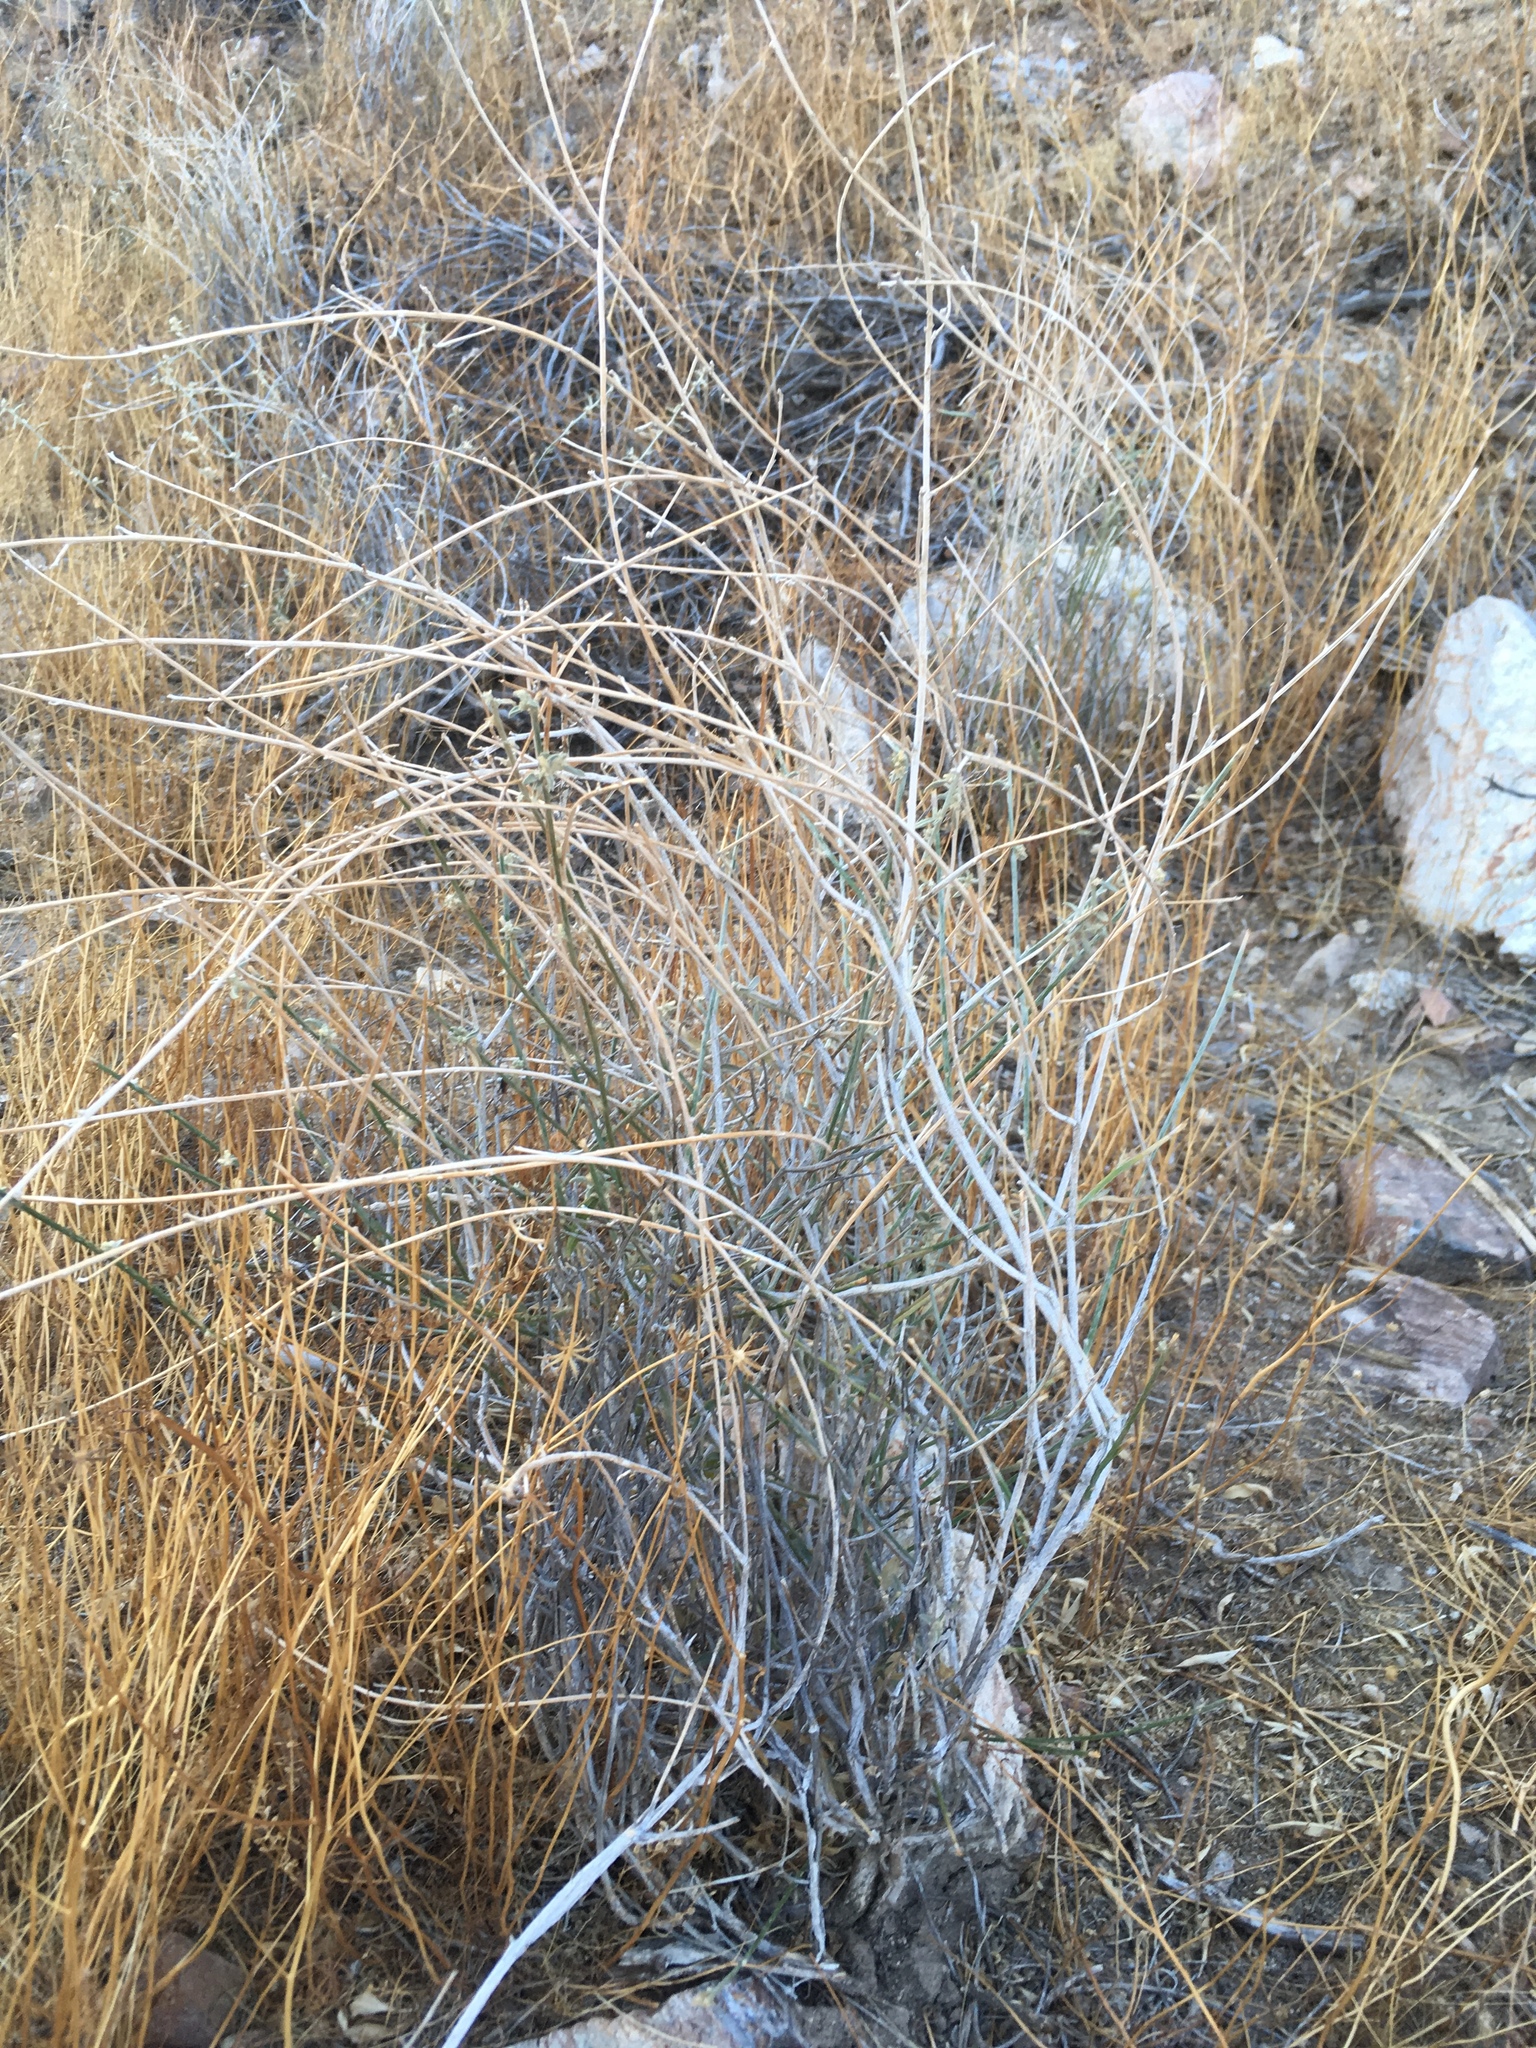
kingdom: Plantae
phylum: Tracheophyta
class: Magnoliopsida
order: Malpighiales
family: Euphorbiaceae
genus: Ditaxis
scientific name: Ditaxis lanceolata
